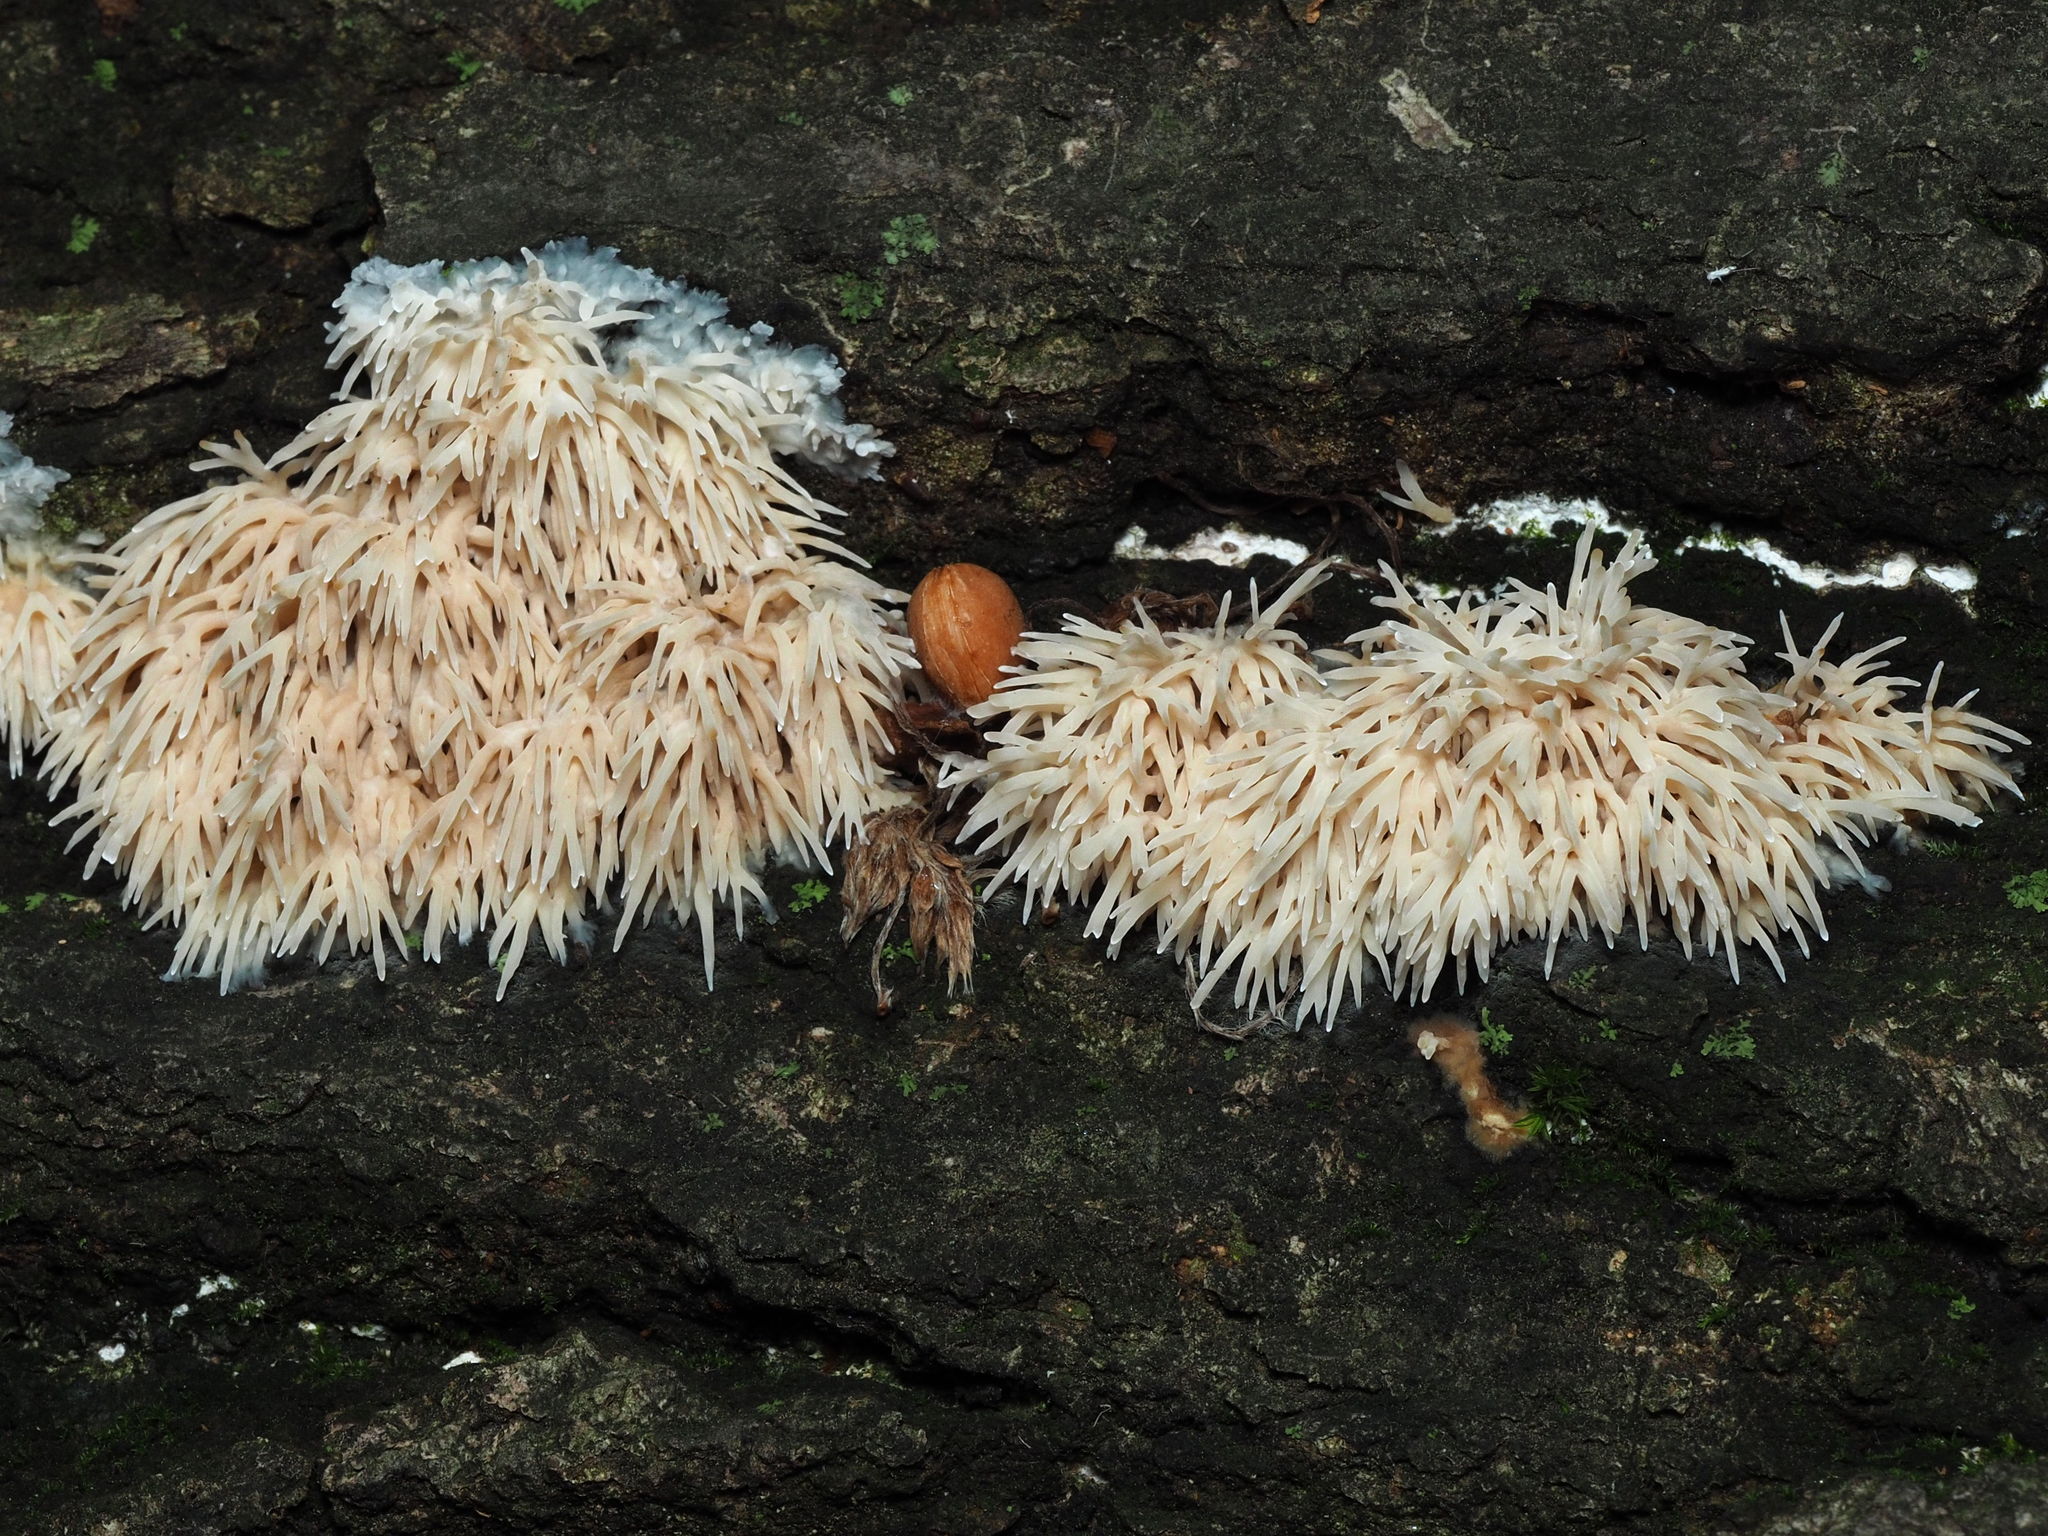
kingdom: Fungi
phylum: Basidiomycota
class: Agaricomycetes
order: Agaricales
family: Radulomycetaceae
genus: Radulomyces
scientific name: Radulomyces copelandii
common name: Asian beauty
